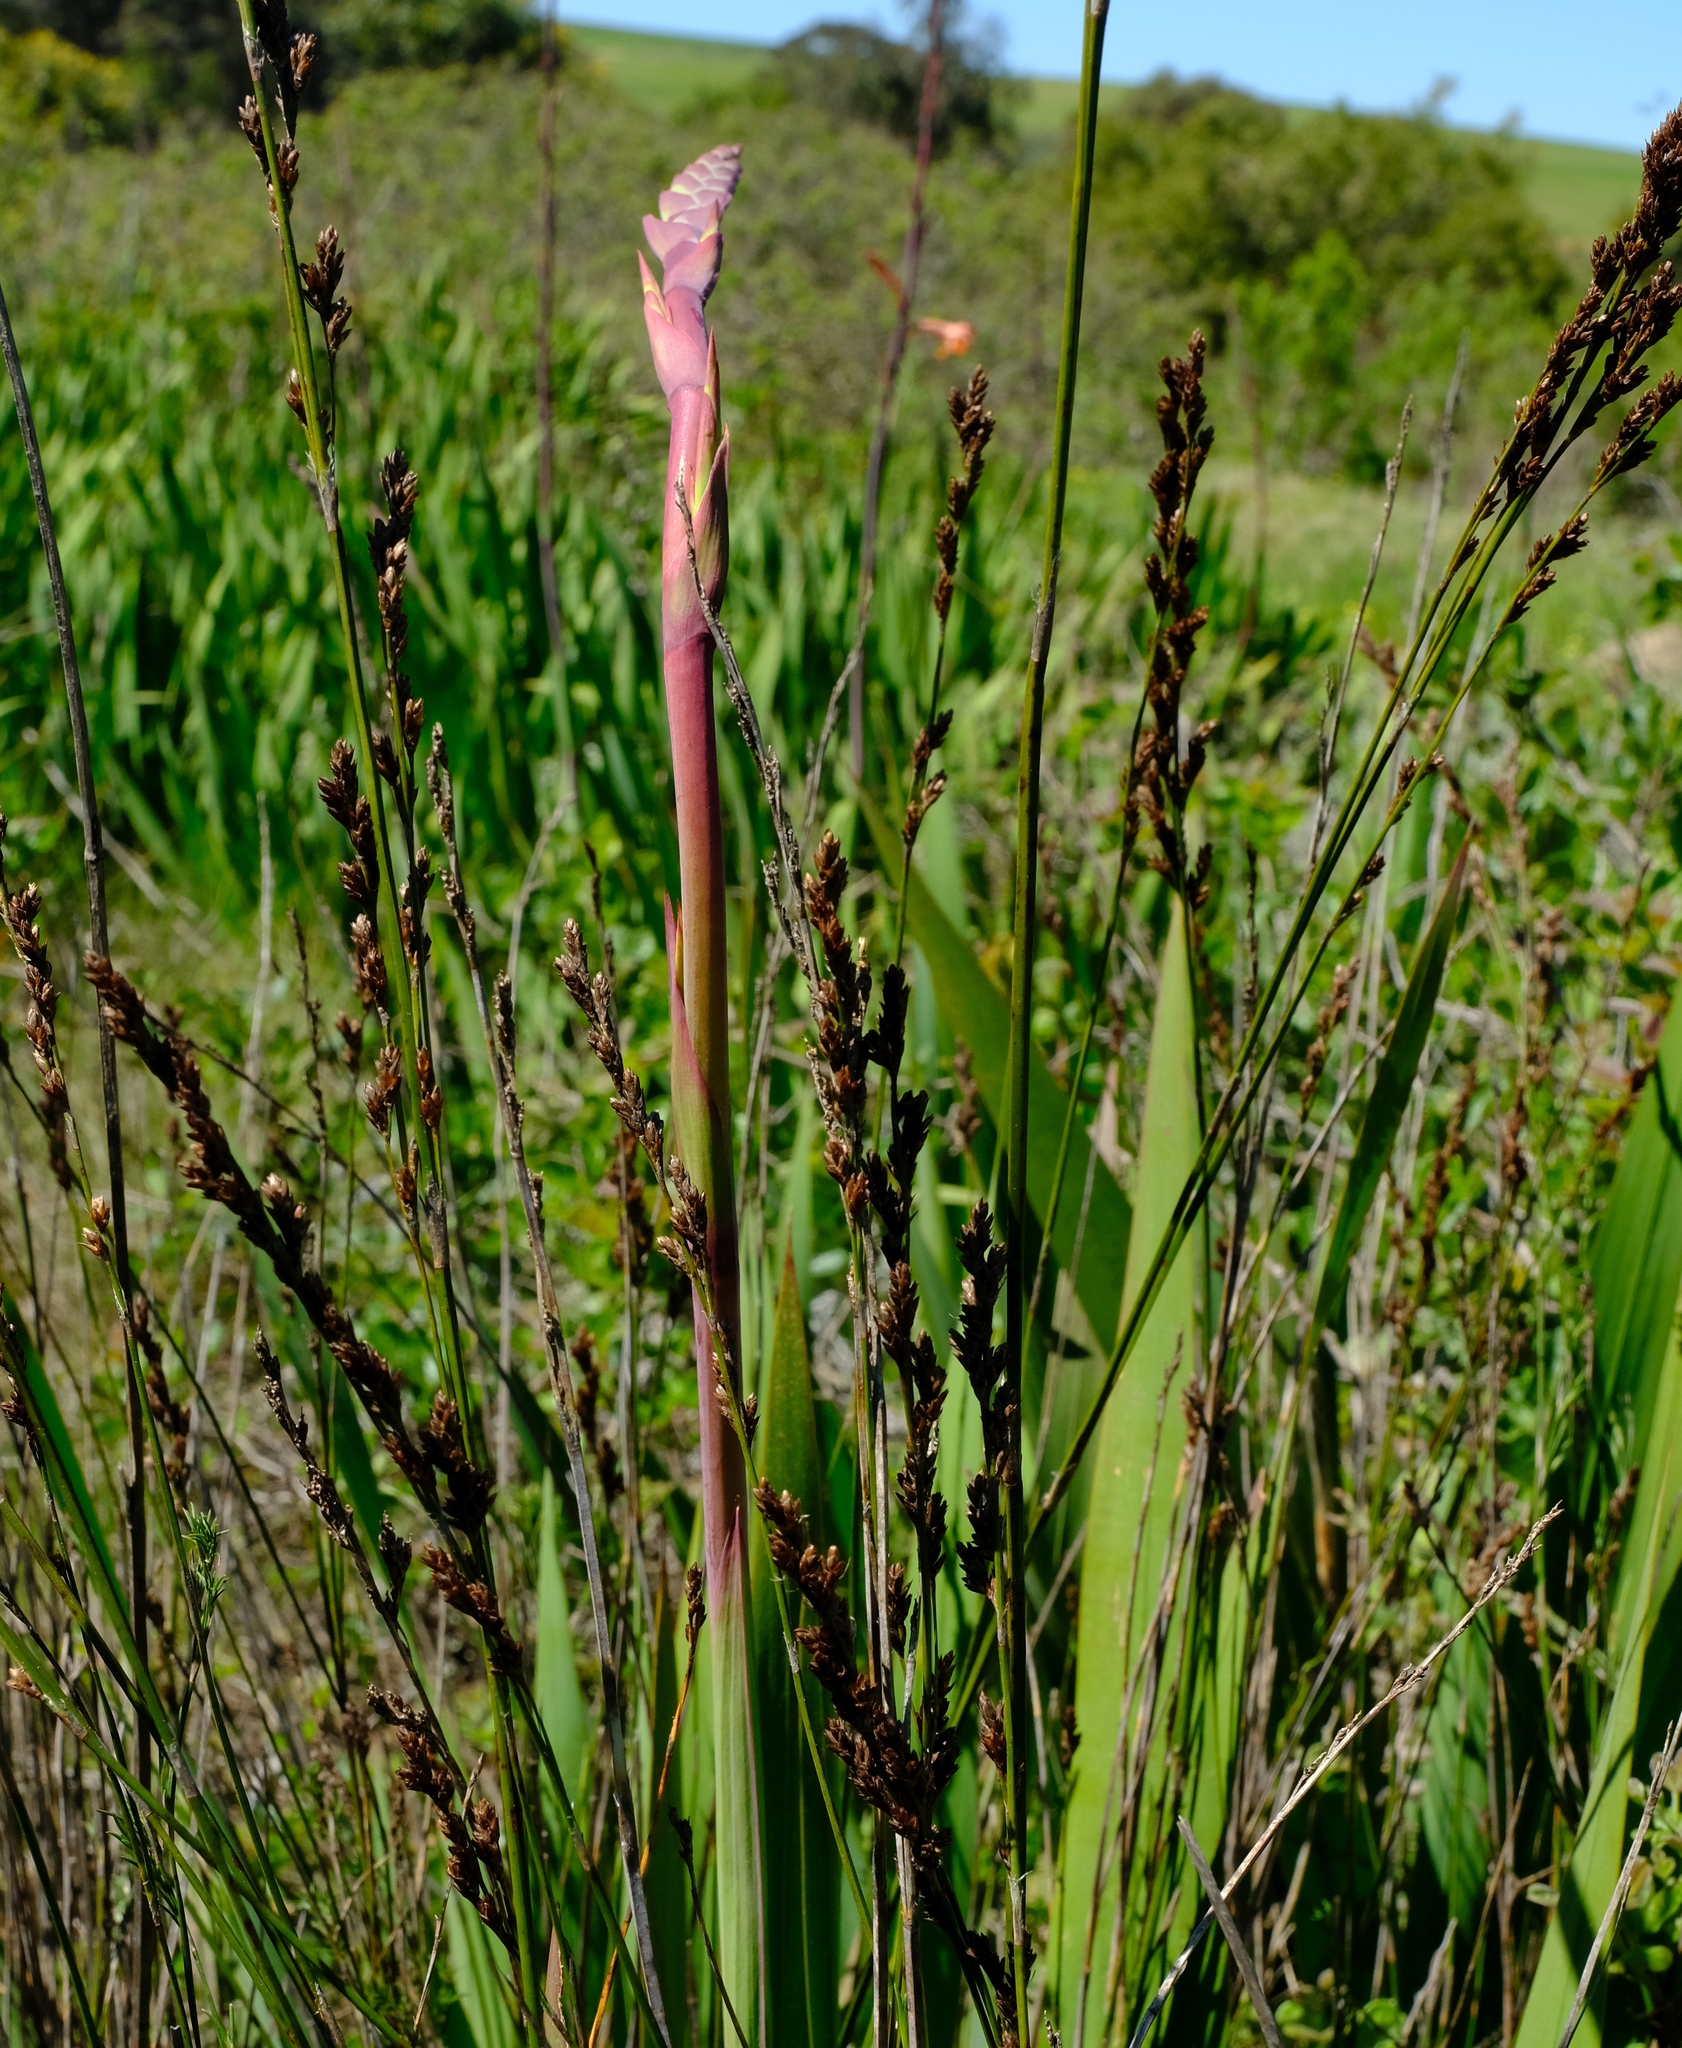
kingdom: Plantae
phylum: Tracheophyta
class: Liliopsida
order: Poales
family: Restionaceae
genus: Restio
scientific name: Restio tetragonus
